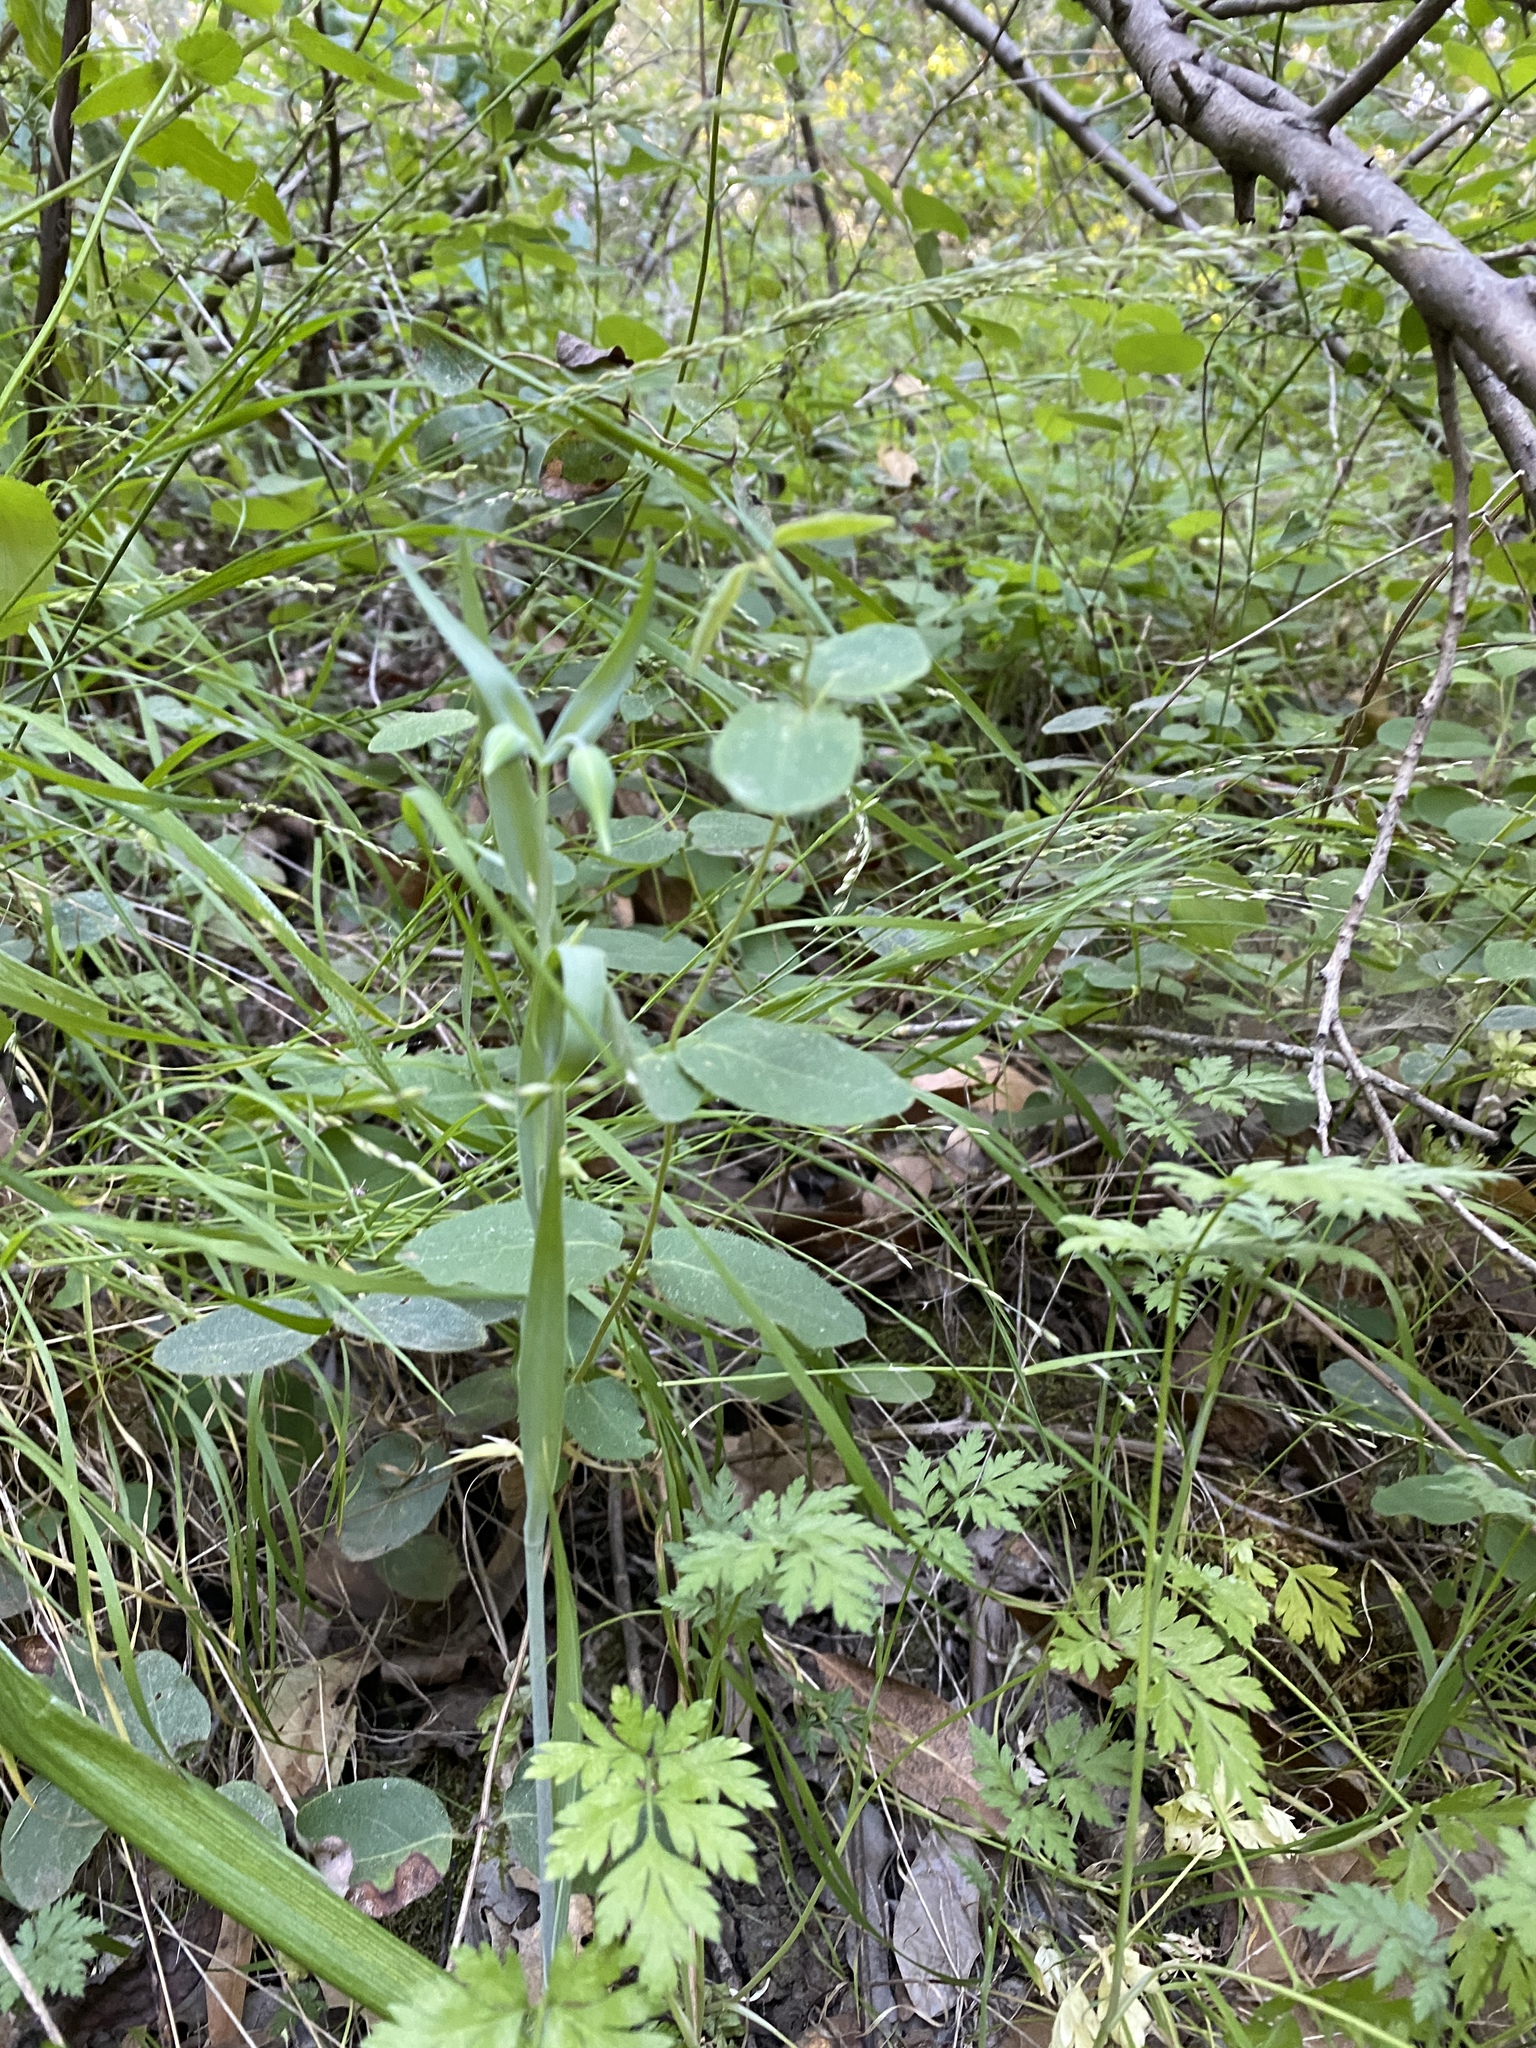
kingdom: Plantae
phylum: Tracheophyta
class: Liliopsida
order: Liliales
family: Liliaceae
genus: Calochortus
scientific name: Calochortus albus
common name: Fairy-lantern
